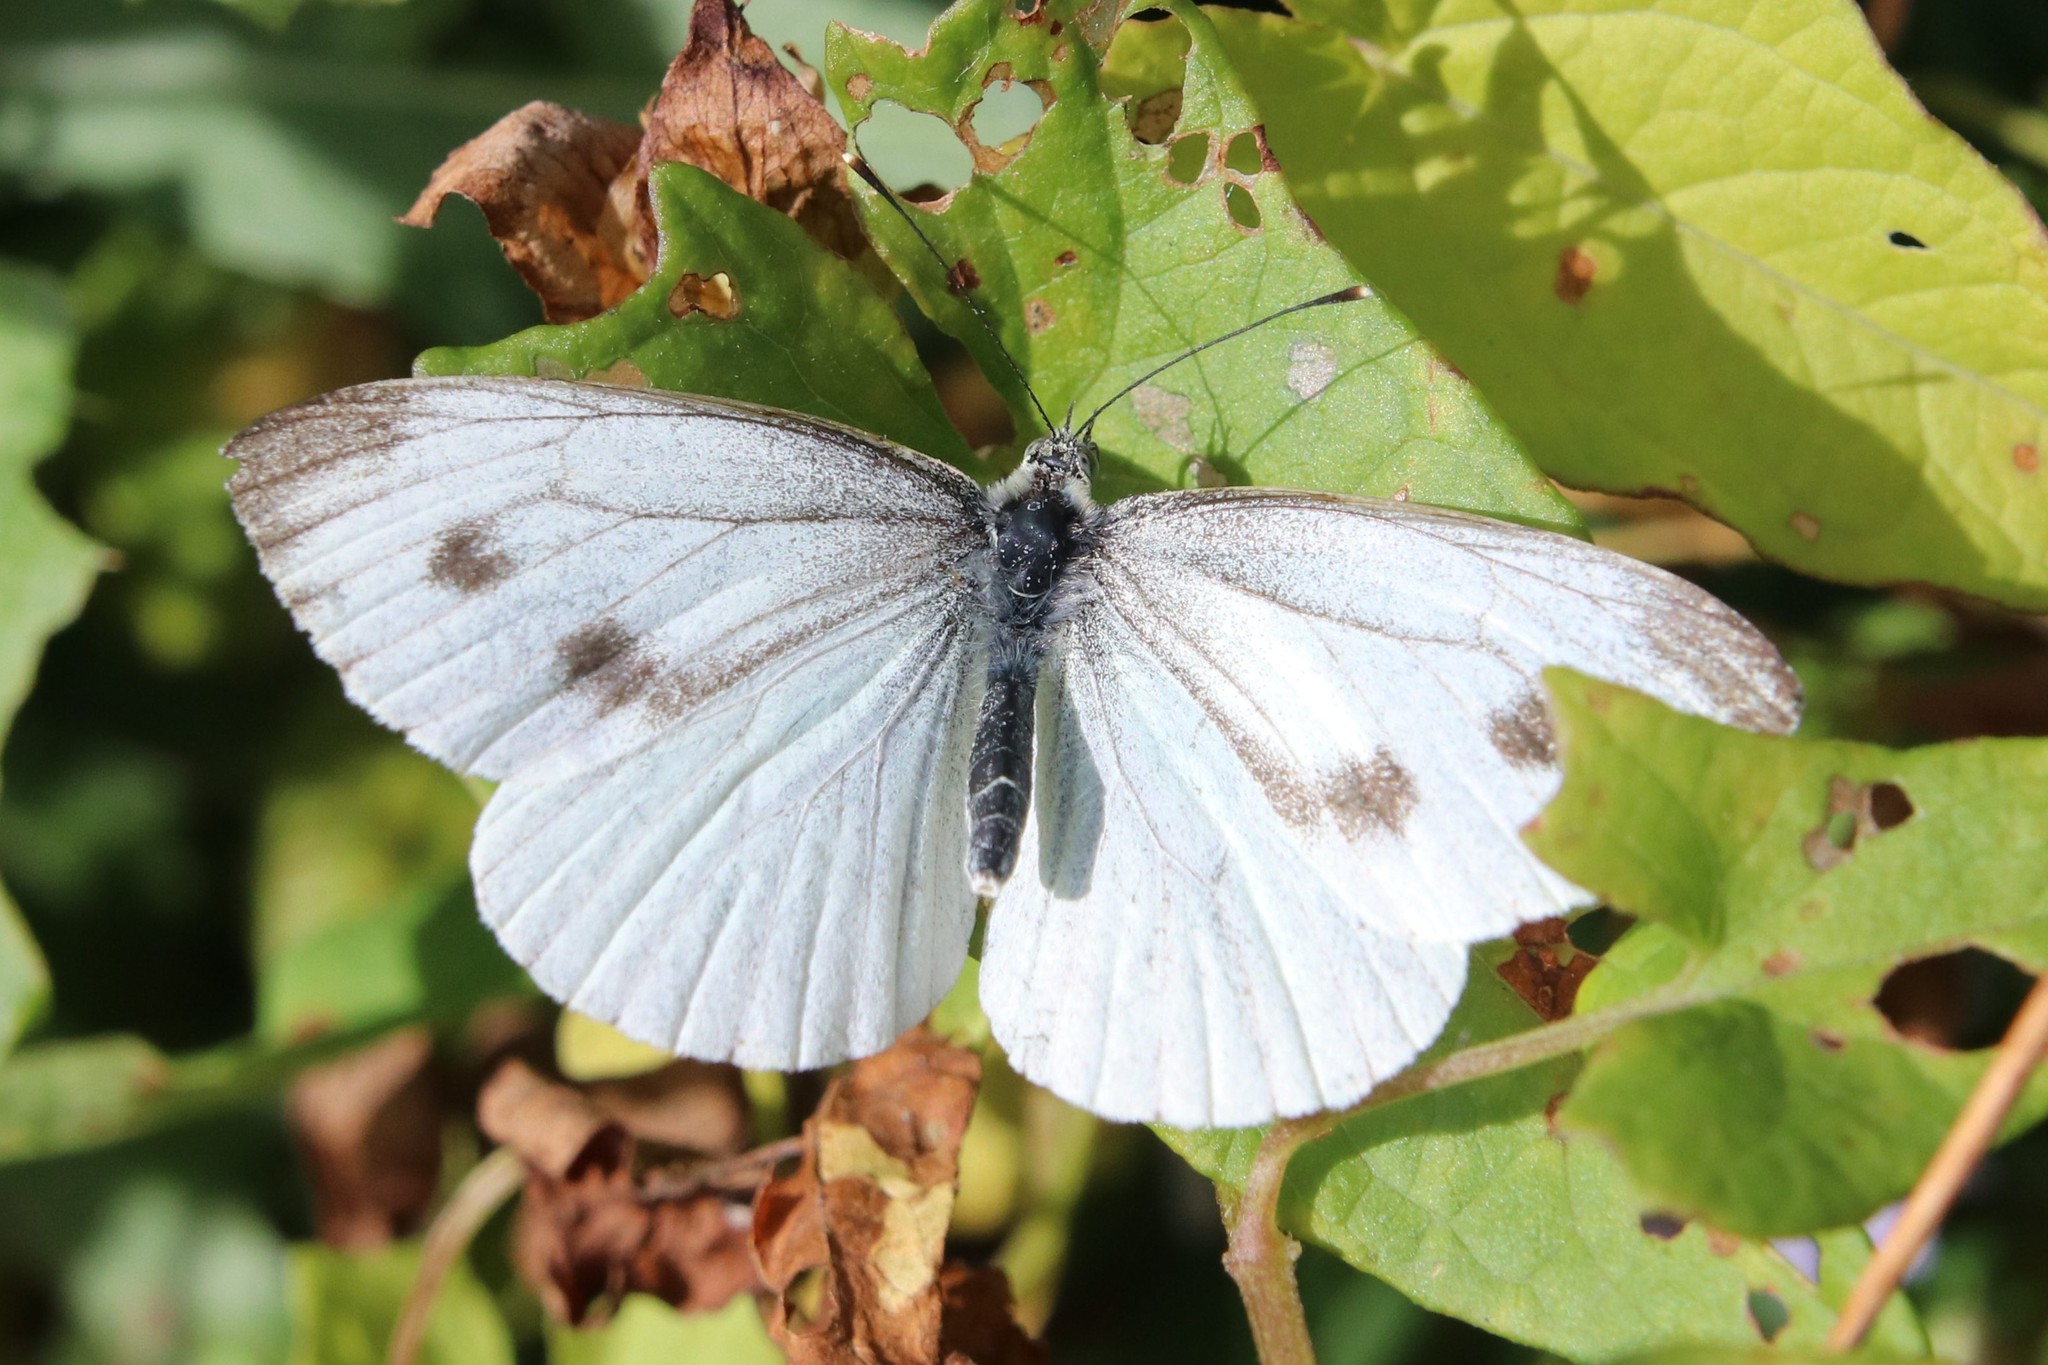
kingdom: Animalia
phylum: Arthropoda
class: Insecta
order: Lepidoptera
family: Pieridae
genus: Pieris
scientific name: Pieris napi
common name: Green-veined white
